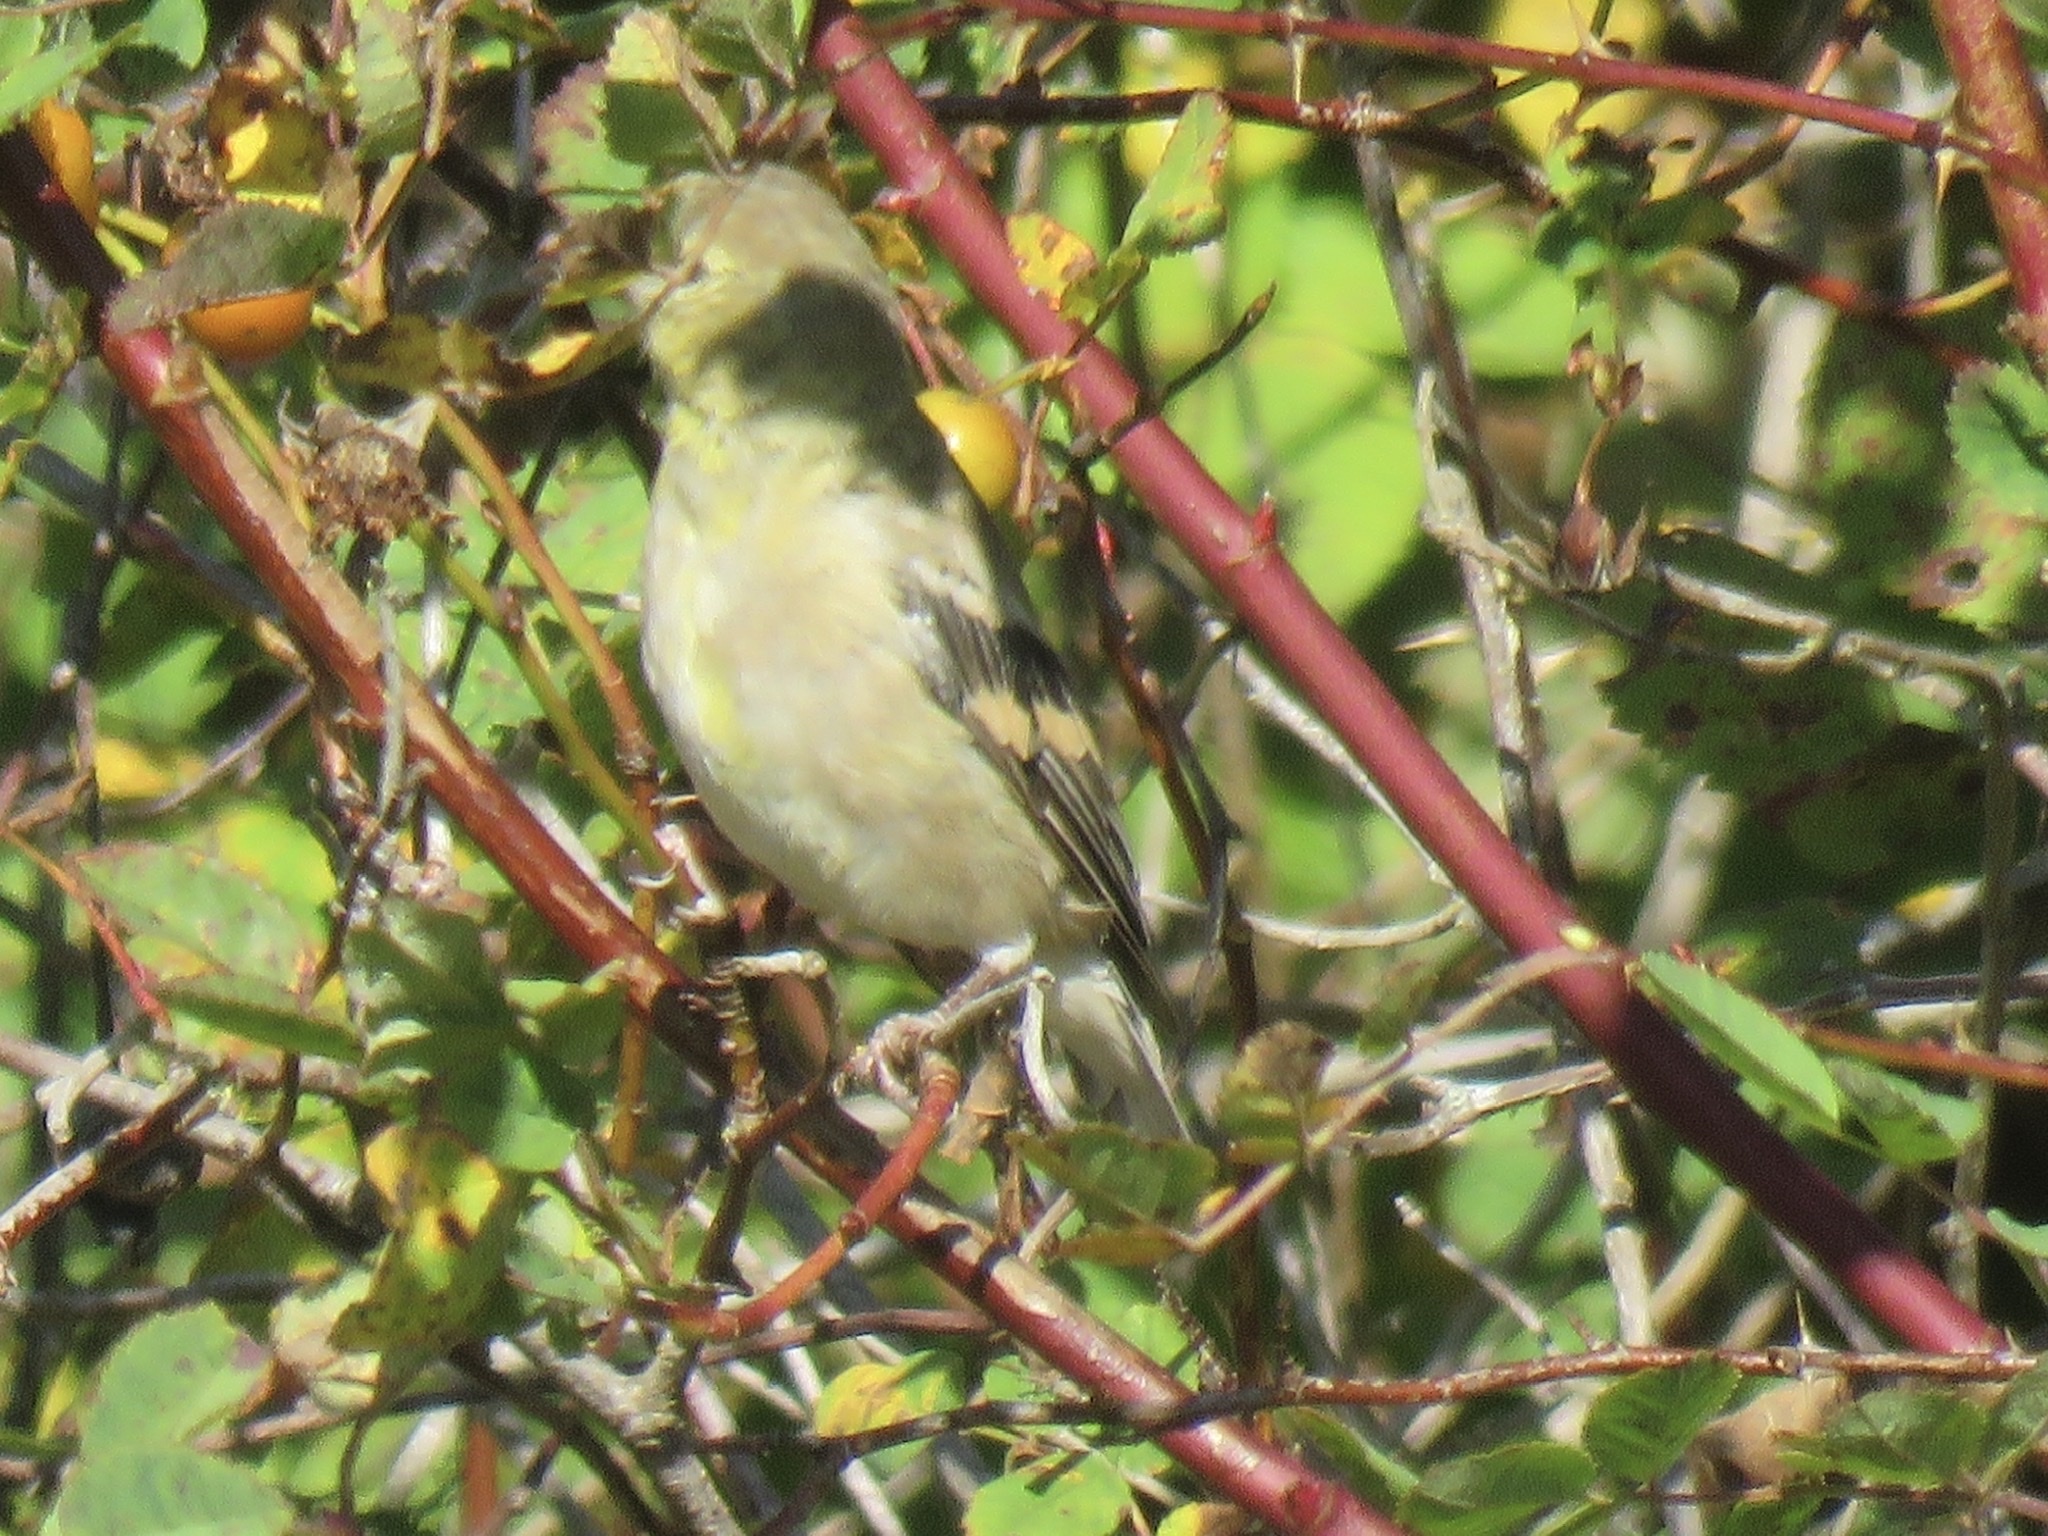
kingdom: Animalia
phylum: Chordata
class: Aves
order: Passeriformes
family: Fringillidae
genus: Spinus
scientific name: Spinus tristis
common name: American goldfinch
